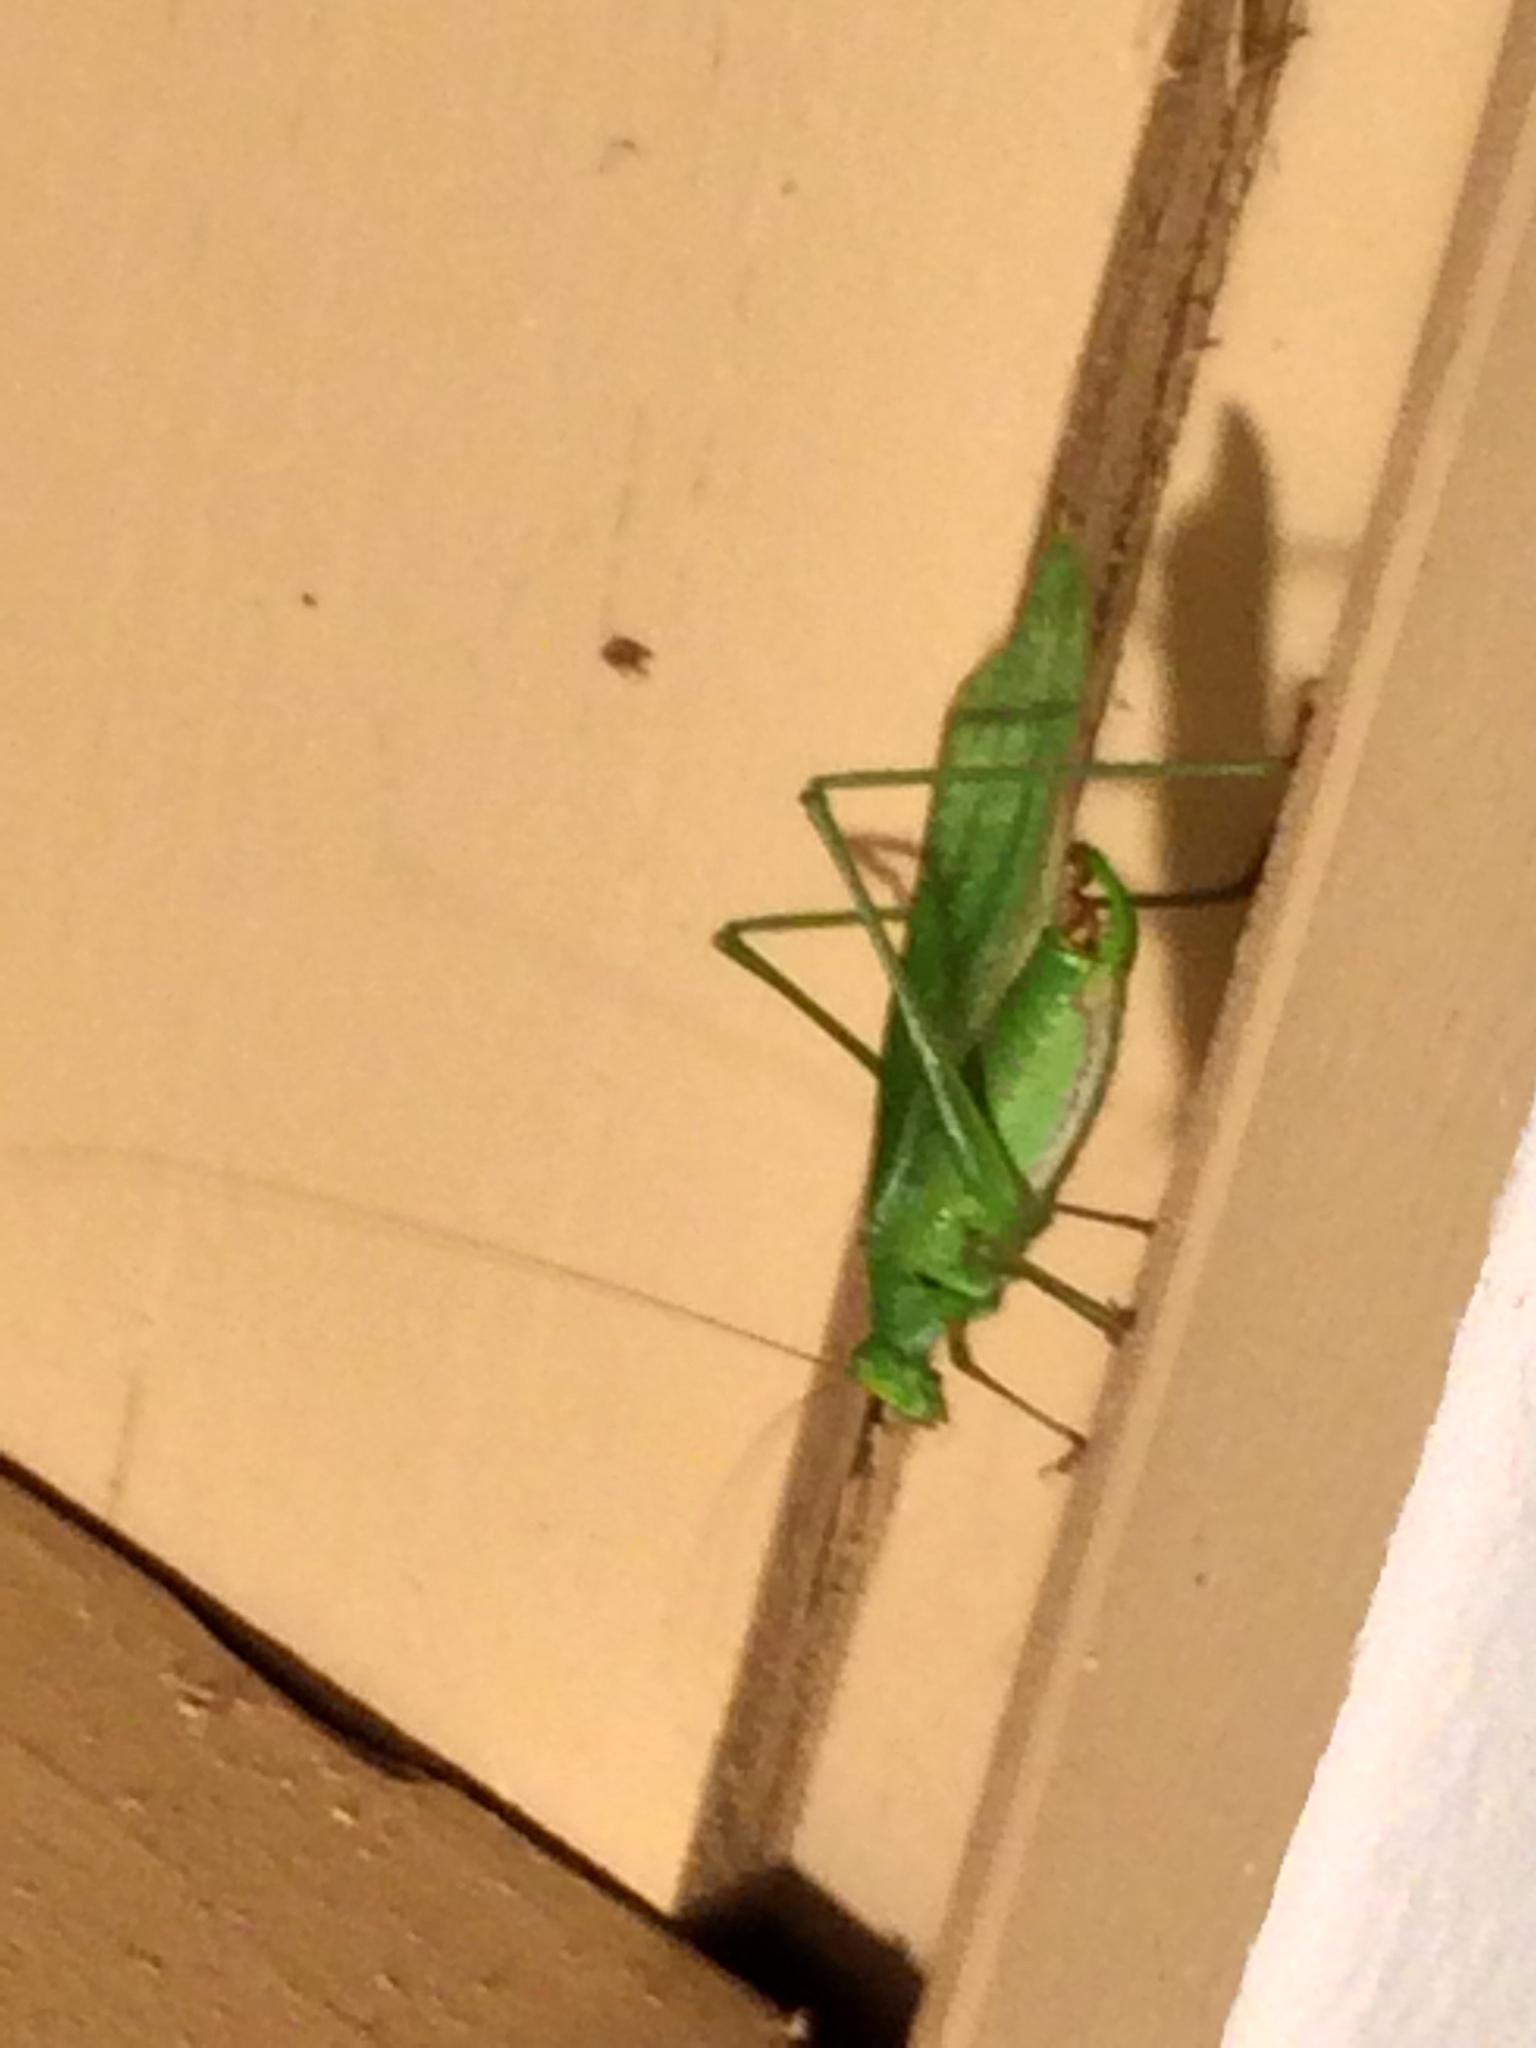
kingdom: Animalia
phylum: Arthropoda
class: Insecta
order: Orthoptera
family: Tettigoniidae
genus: Scudderia
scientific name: Scudderia furcata
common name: Fork-tailed bush katydid
